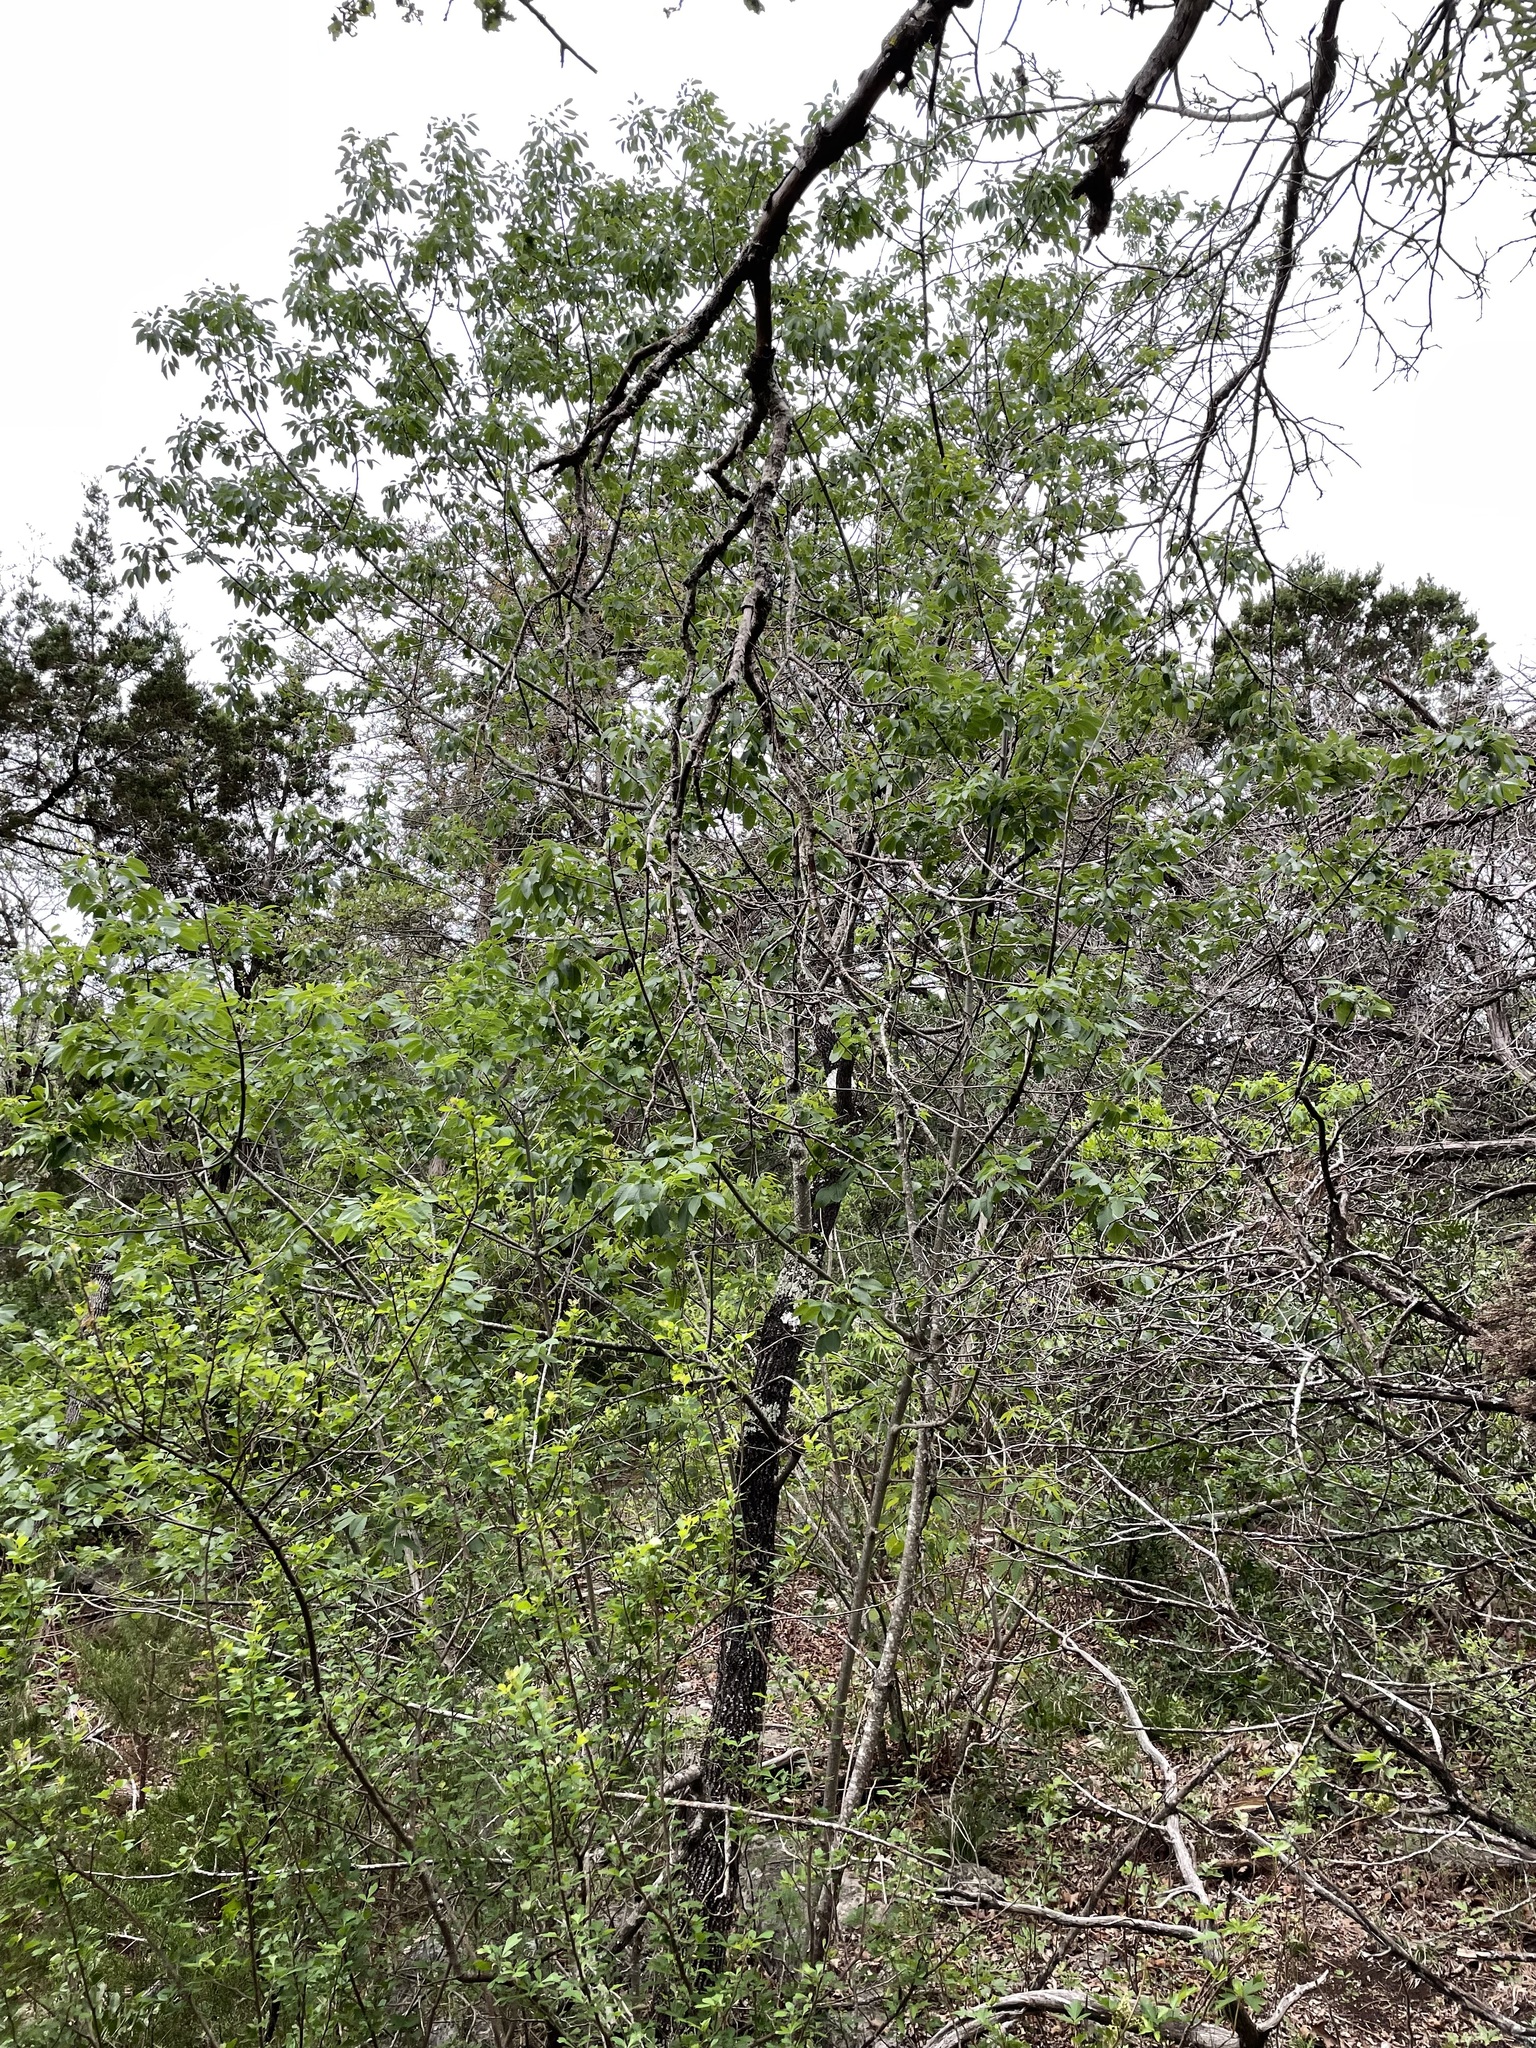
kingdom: Plantae
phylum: Tracheophyta
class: Magnoliopsida
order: Lamiales
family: Oleaceae
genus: Fraxinus
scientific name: Fraxinus albicans
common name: Texas ash
